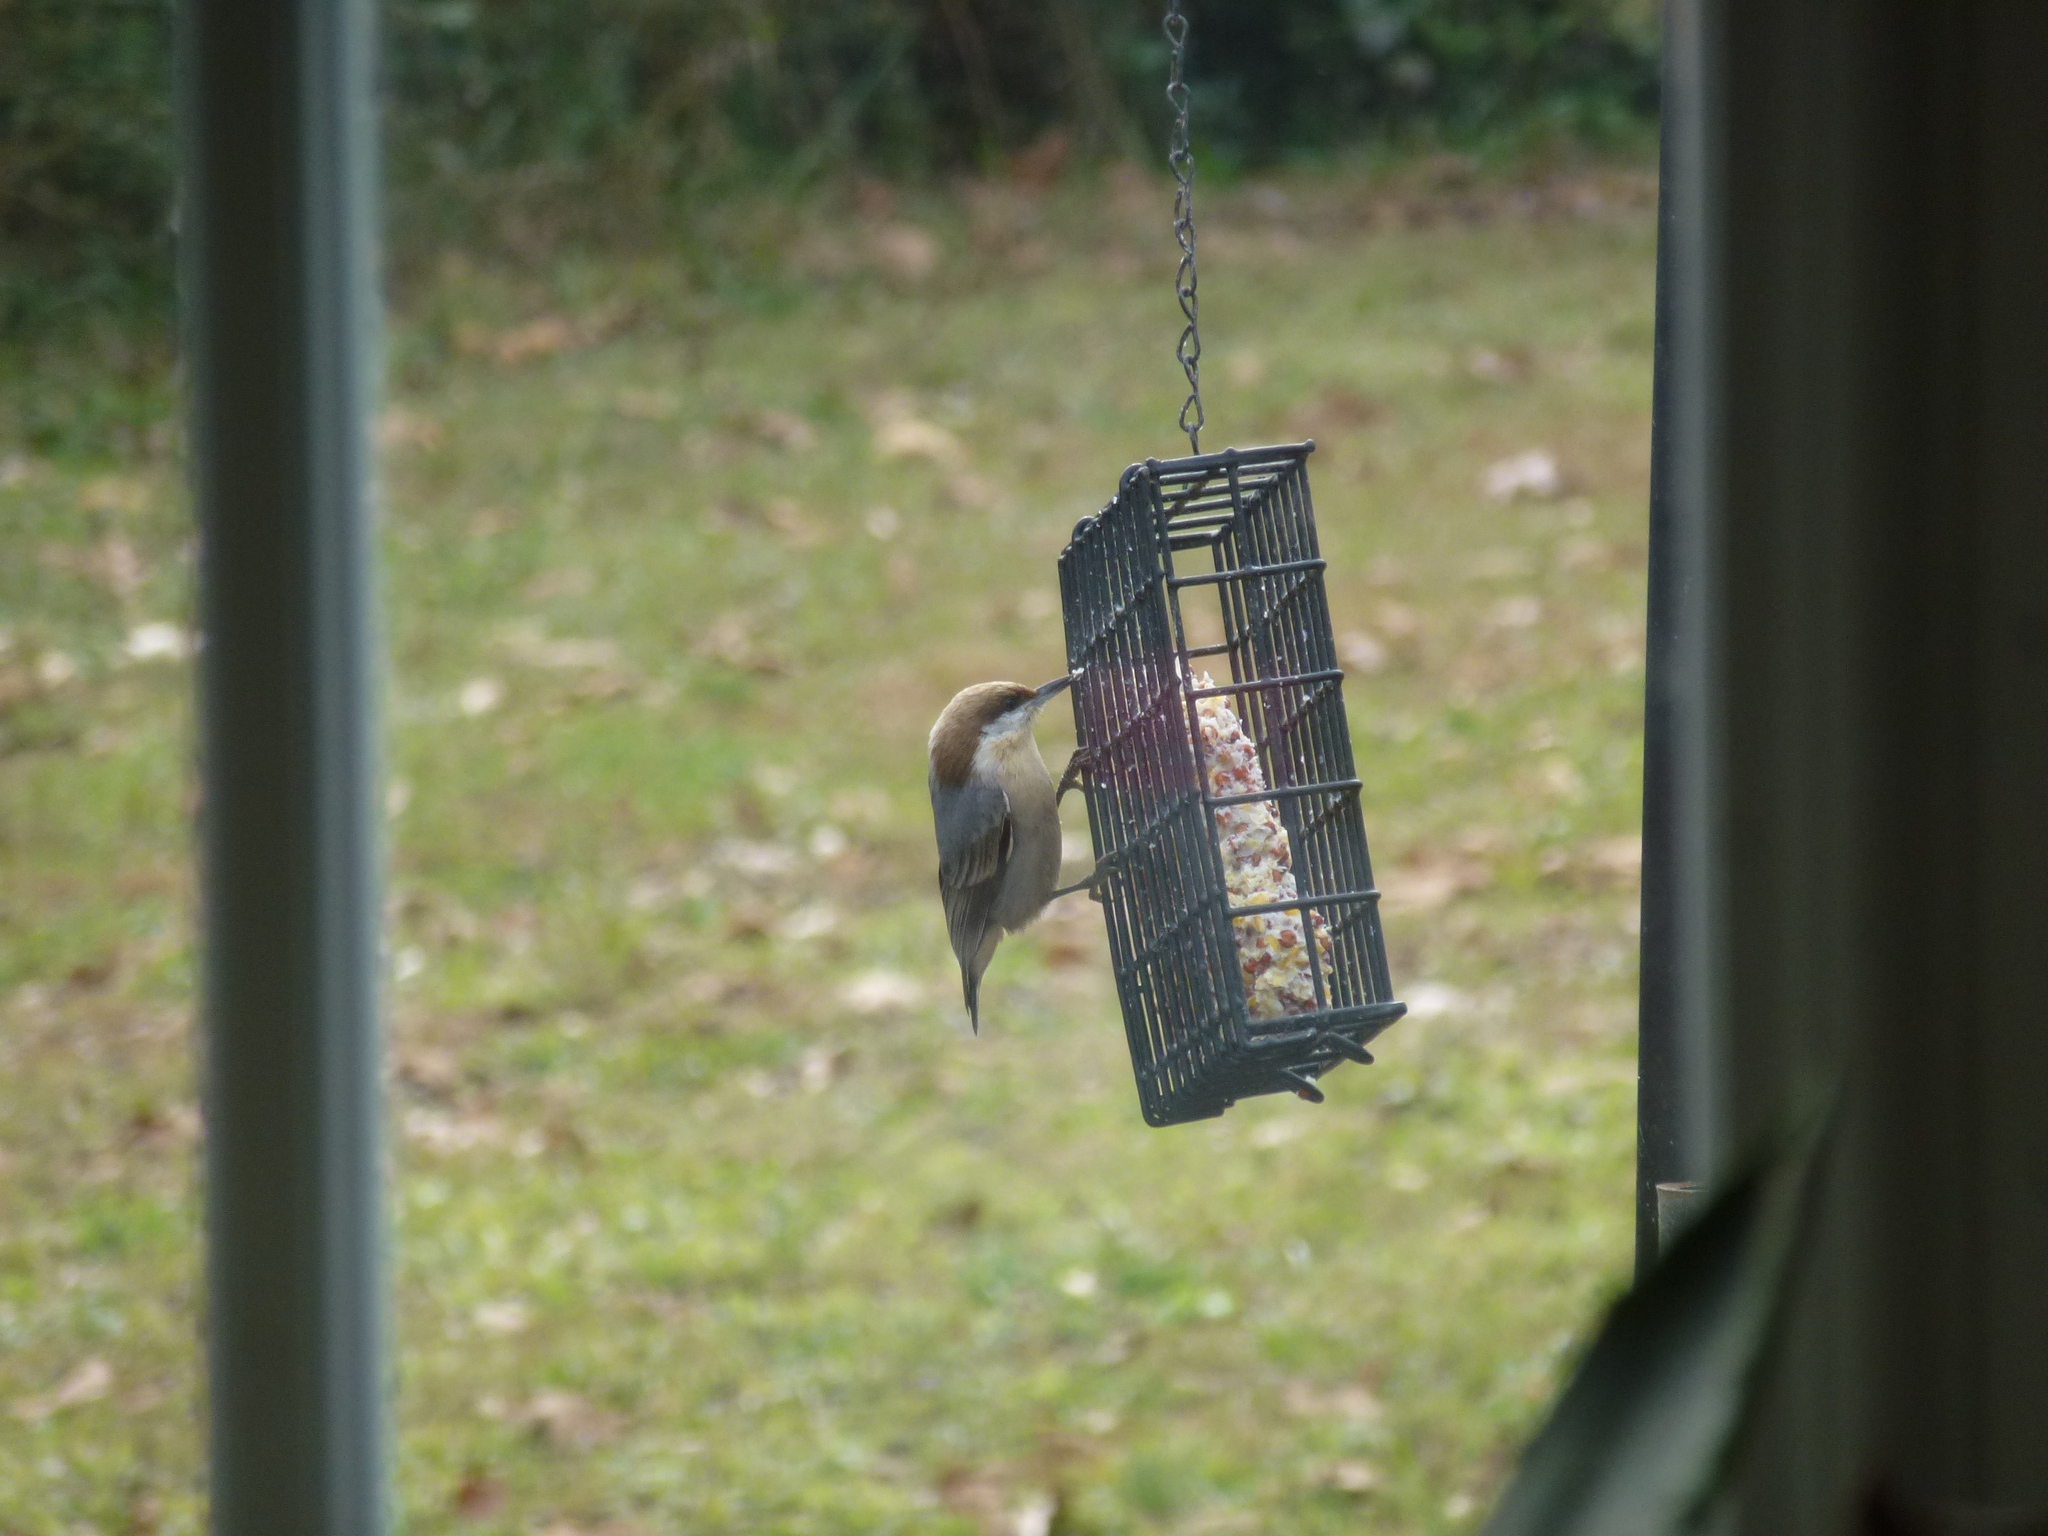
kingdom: Animalia
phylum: Chordata
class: Aves
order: Passeriformes
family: Sittidae
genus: Sitta
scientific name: Sitta pusilla
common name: Brown-headed nuthatch
